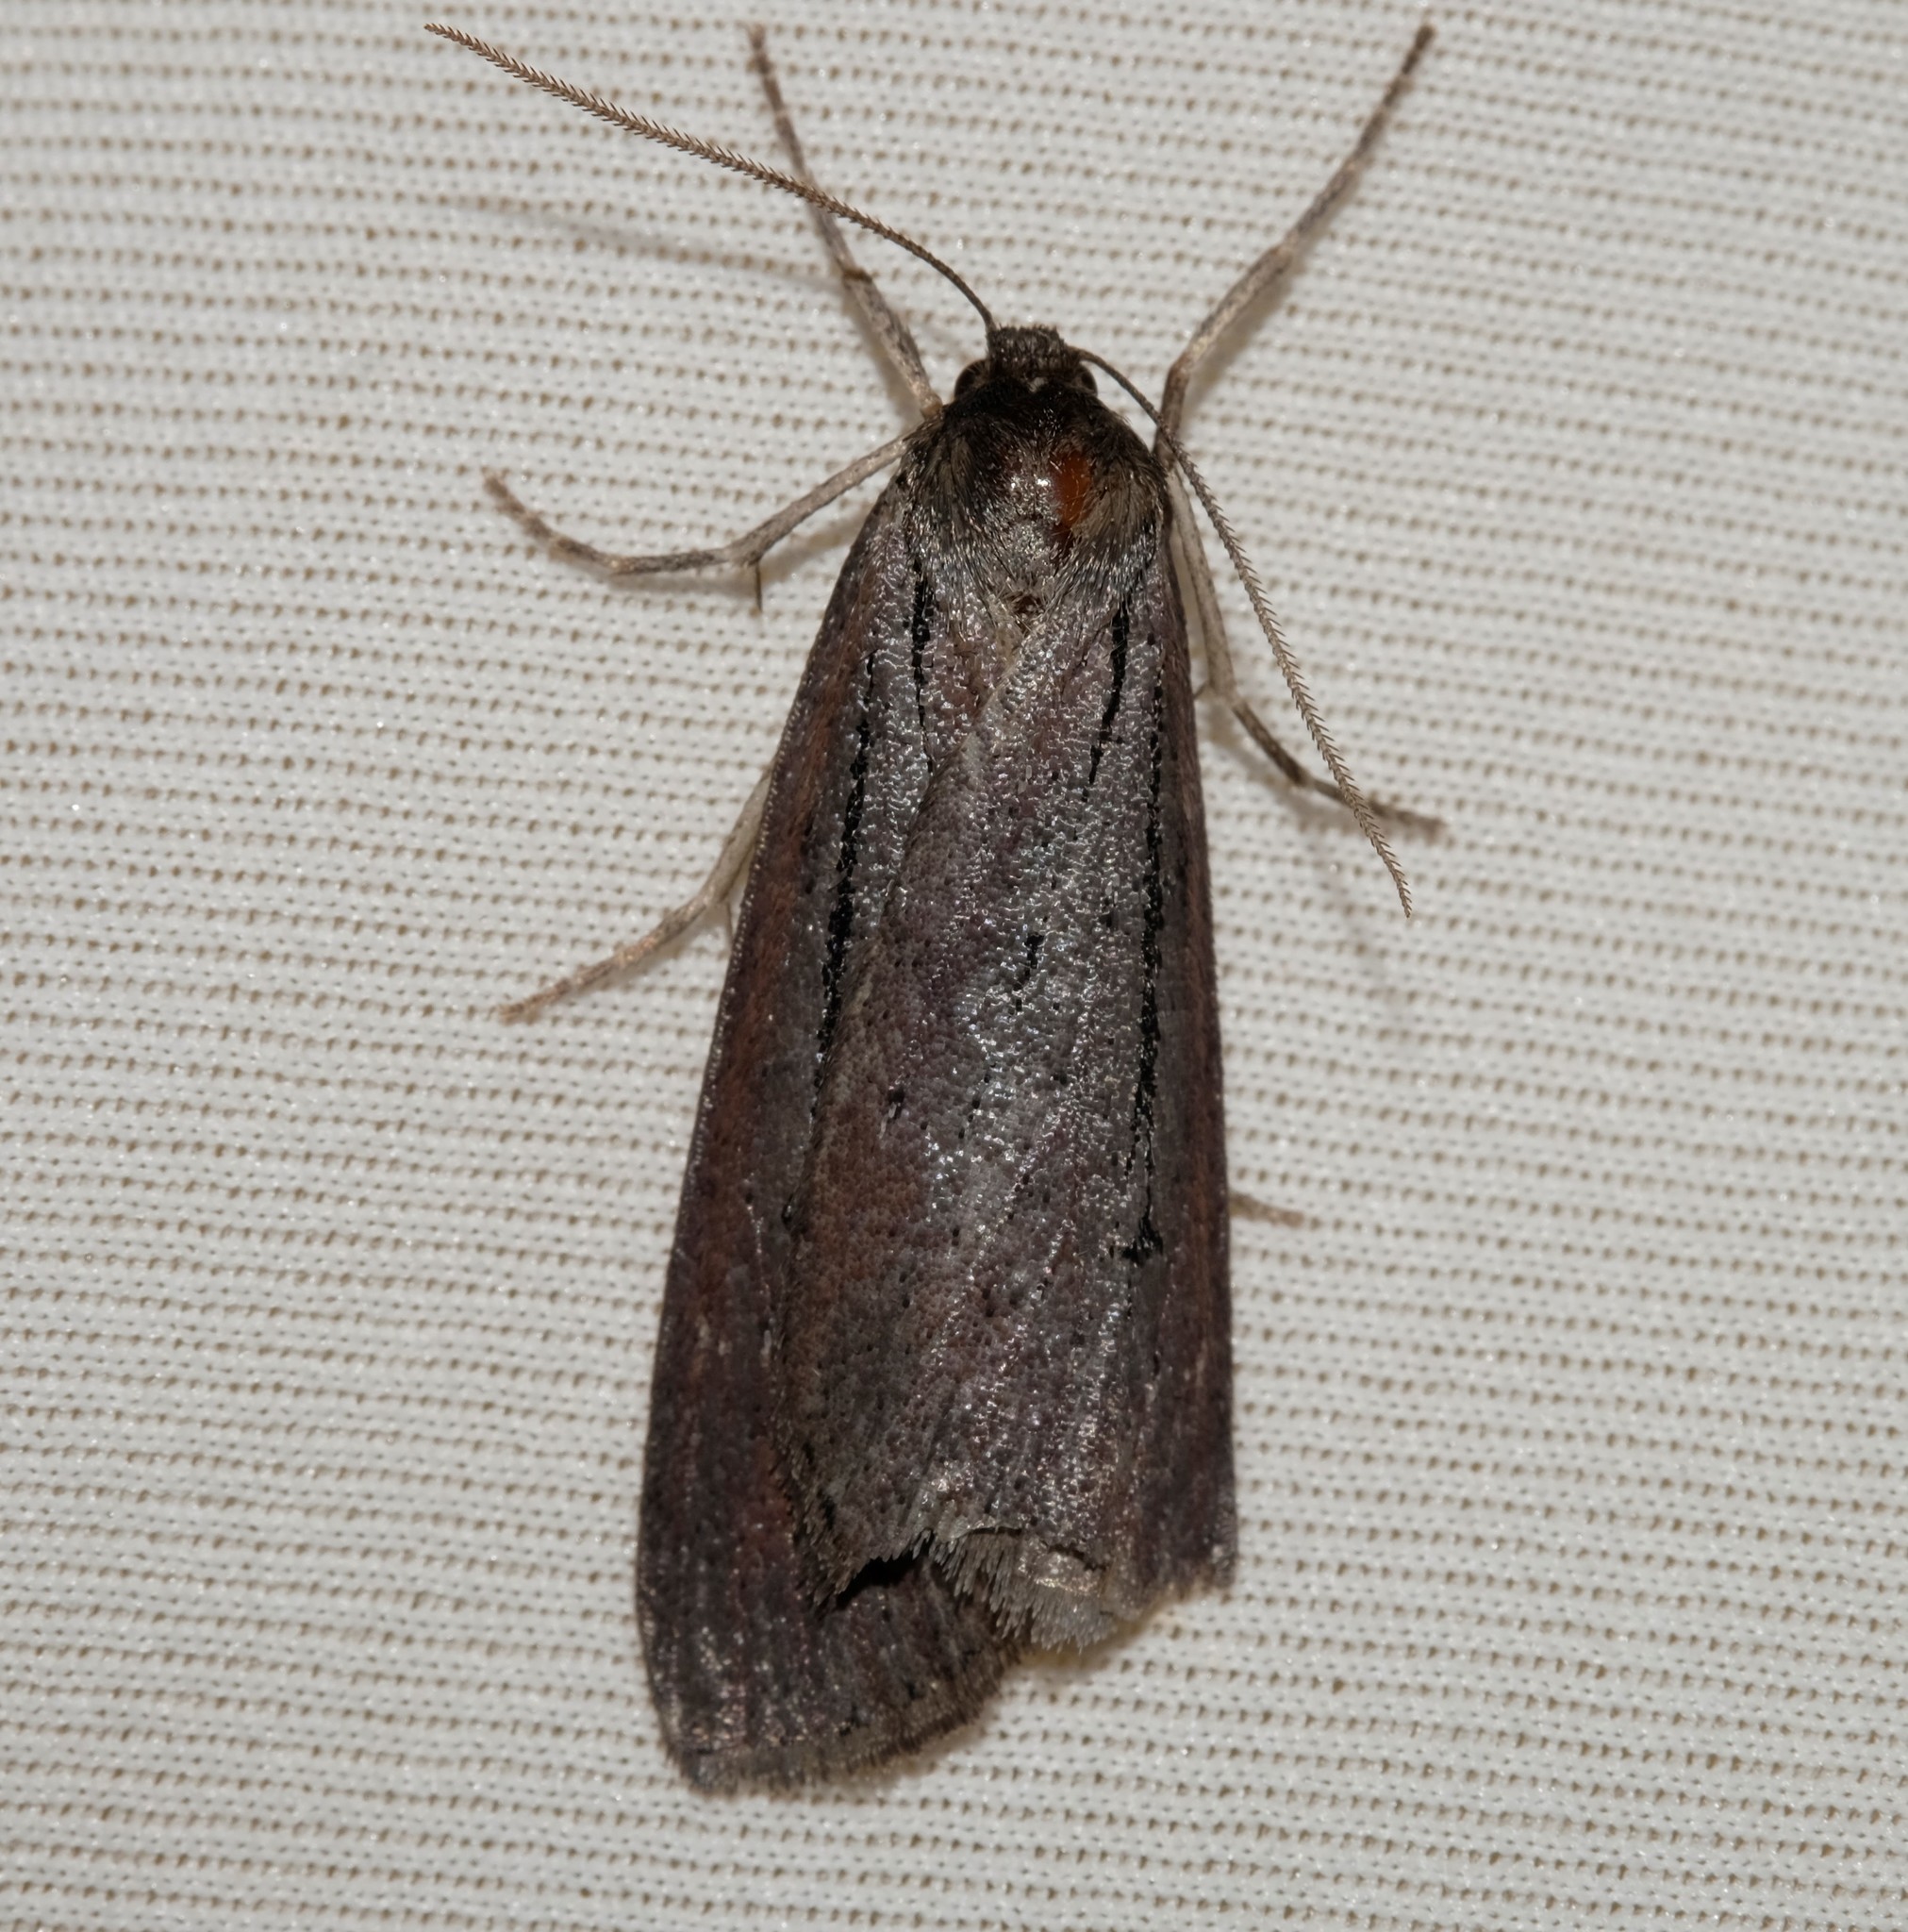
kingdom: Animalia
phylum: Arthropoda
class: Insecta
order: Lepidoptera
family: Geometridae
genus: Chlenias
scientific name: Chlenias seminigra
